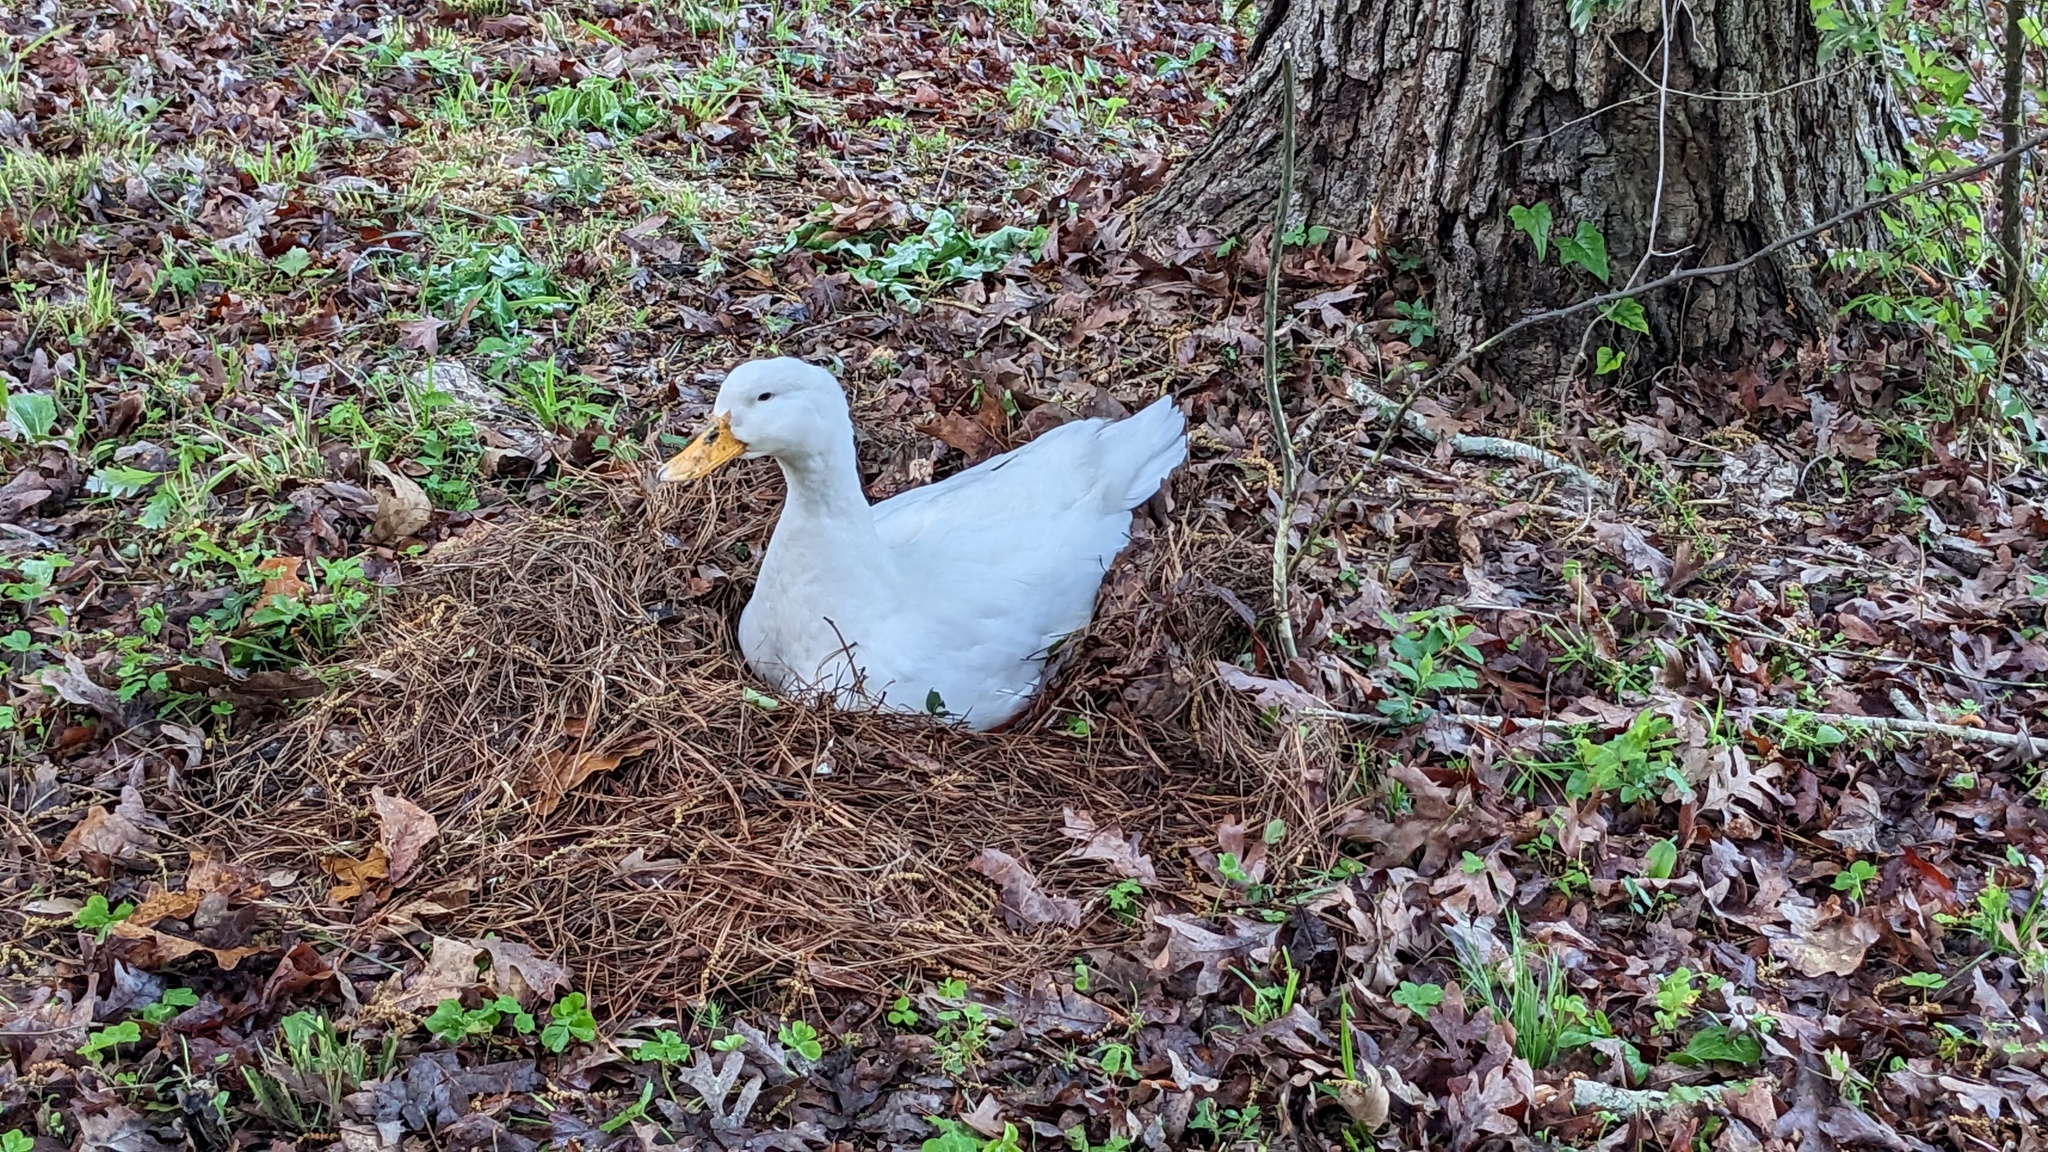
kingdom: Animalia
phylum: Chordata
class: Aves
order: Anseriformes
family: Anatidae
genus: Anas
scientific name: Anas platyrhynchos
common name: Mallard
